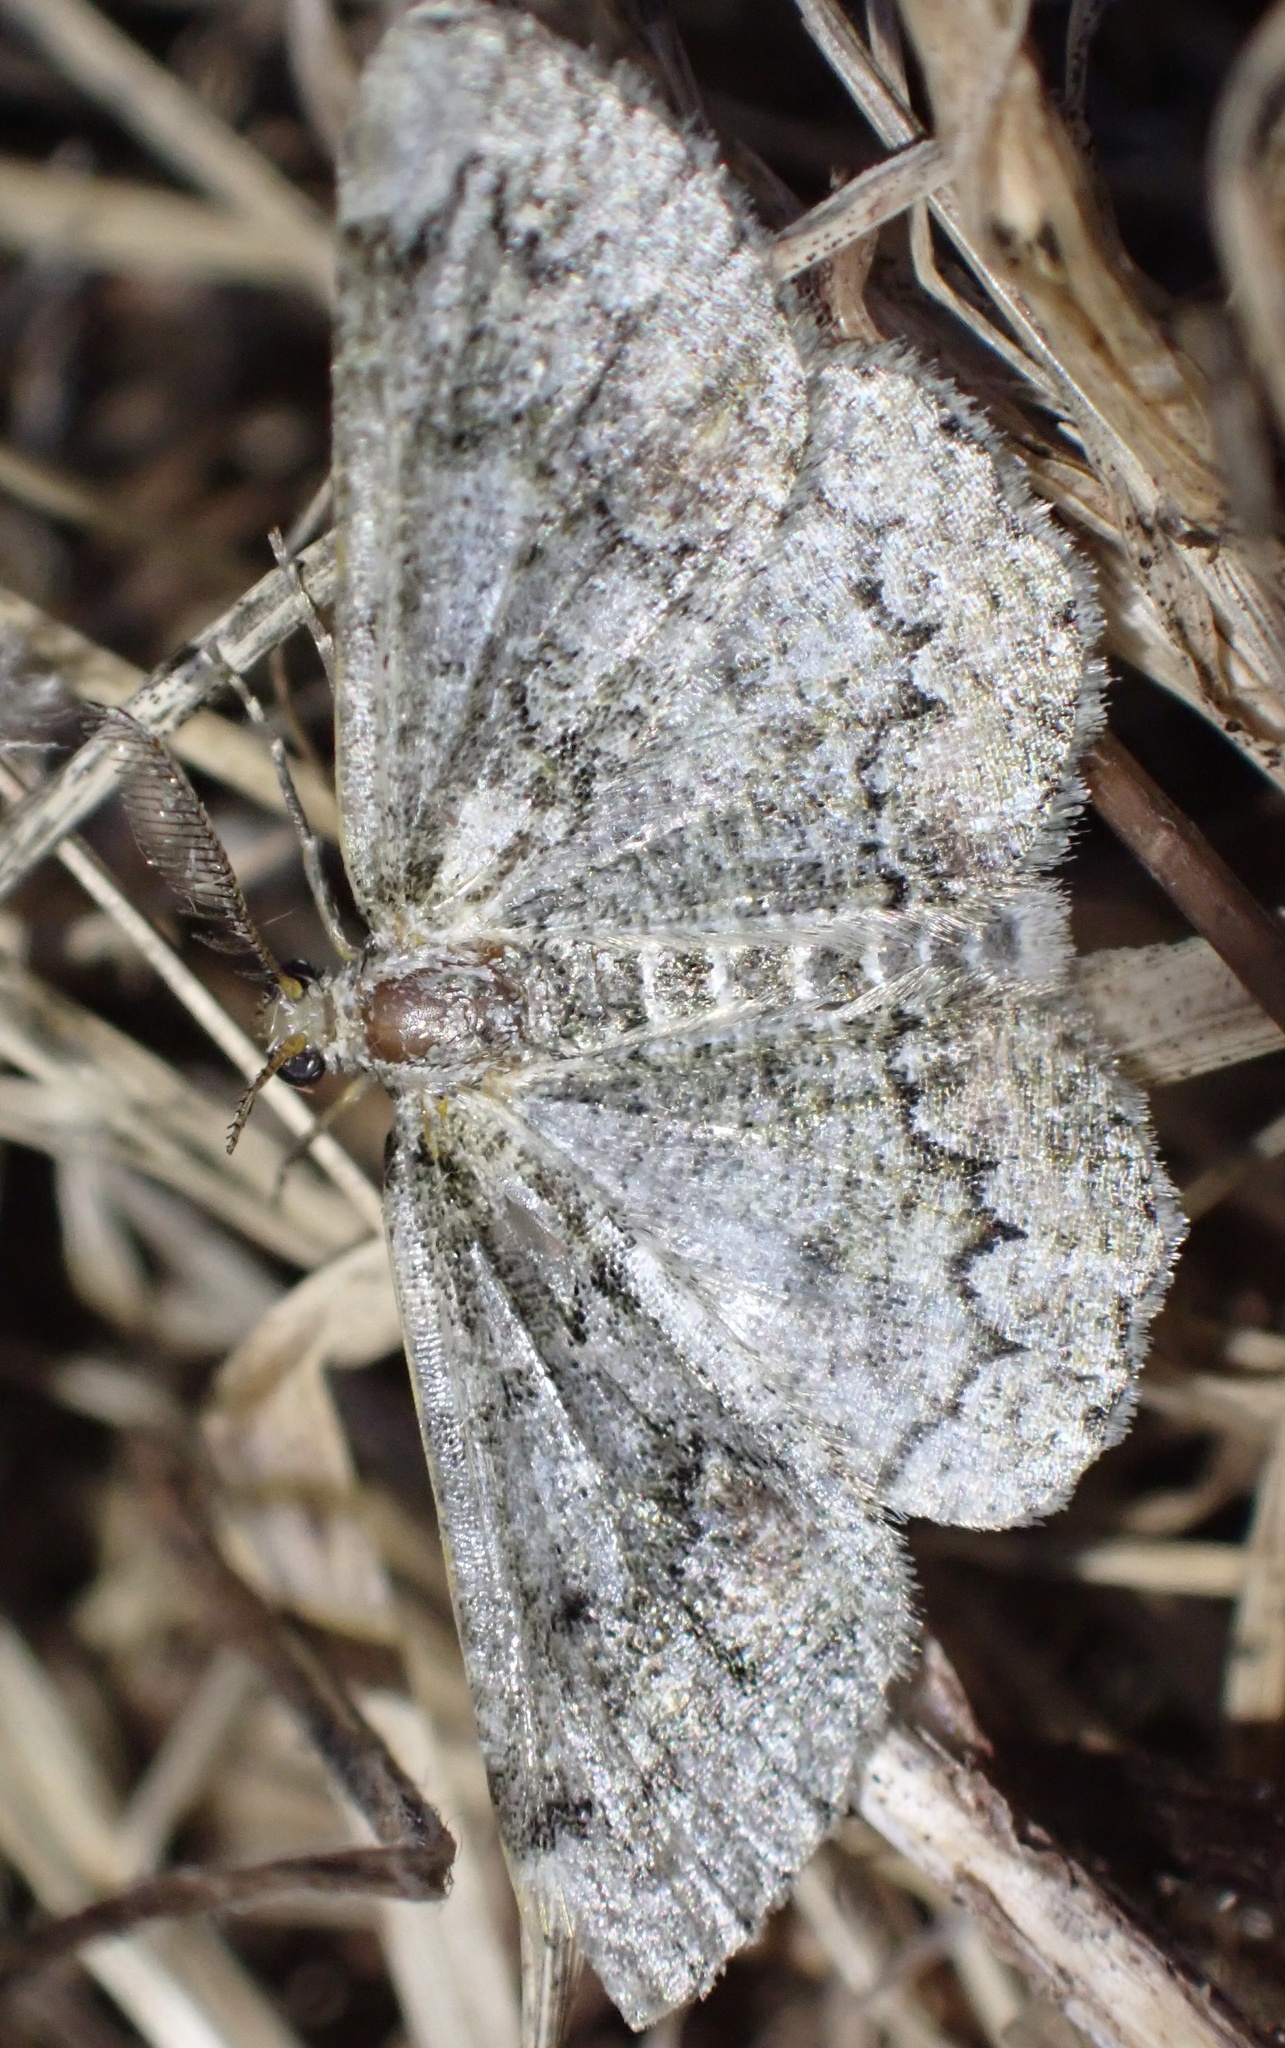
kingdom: Animalia
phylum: Arthropoda
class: Insecta
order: Lepidoptera
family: Geometridae
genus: Cleorodes
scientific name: Cleorodes lichenaria
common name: Brussels lace
